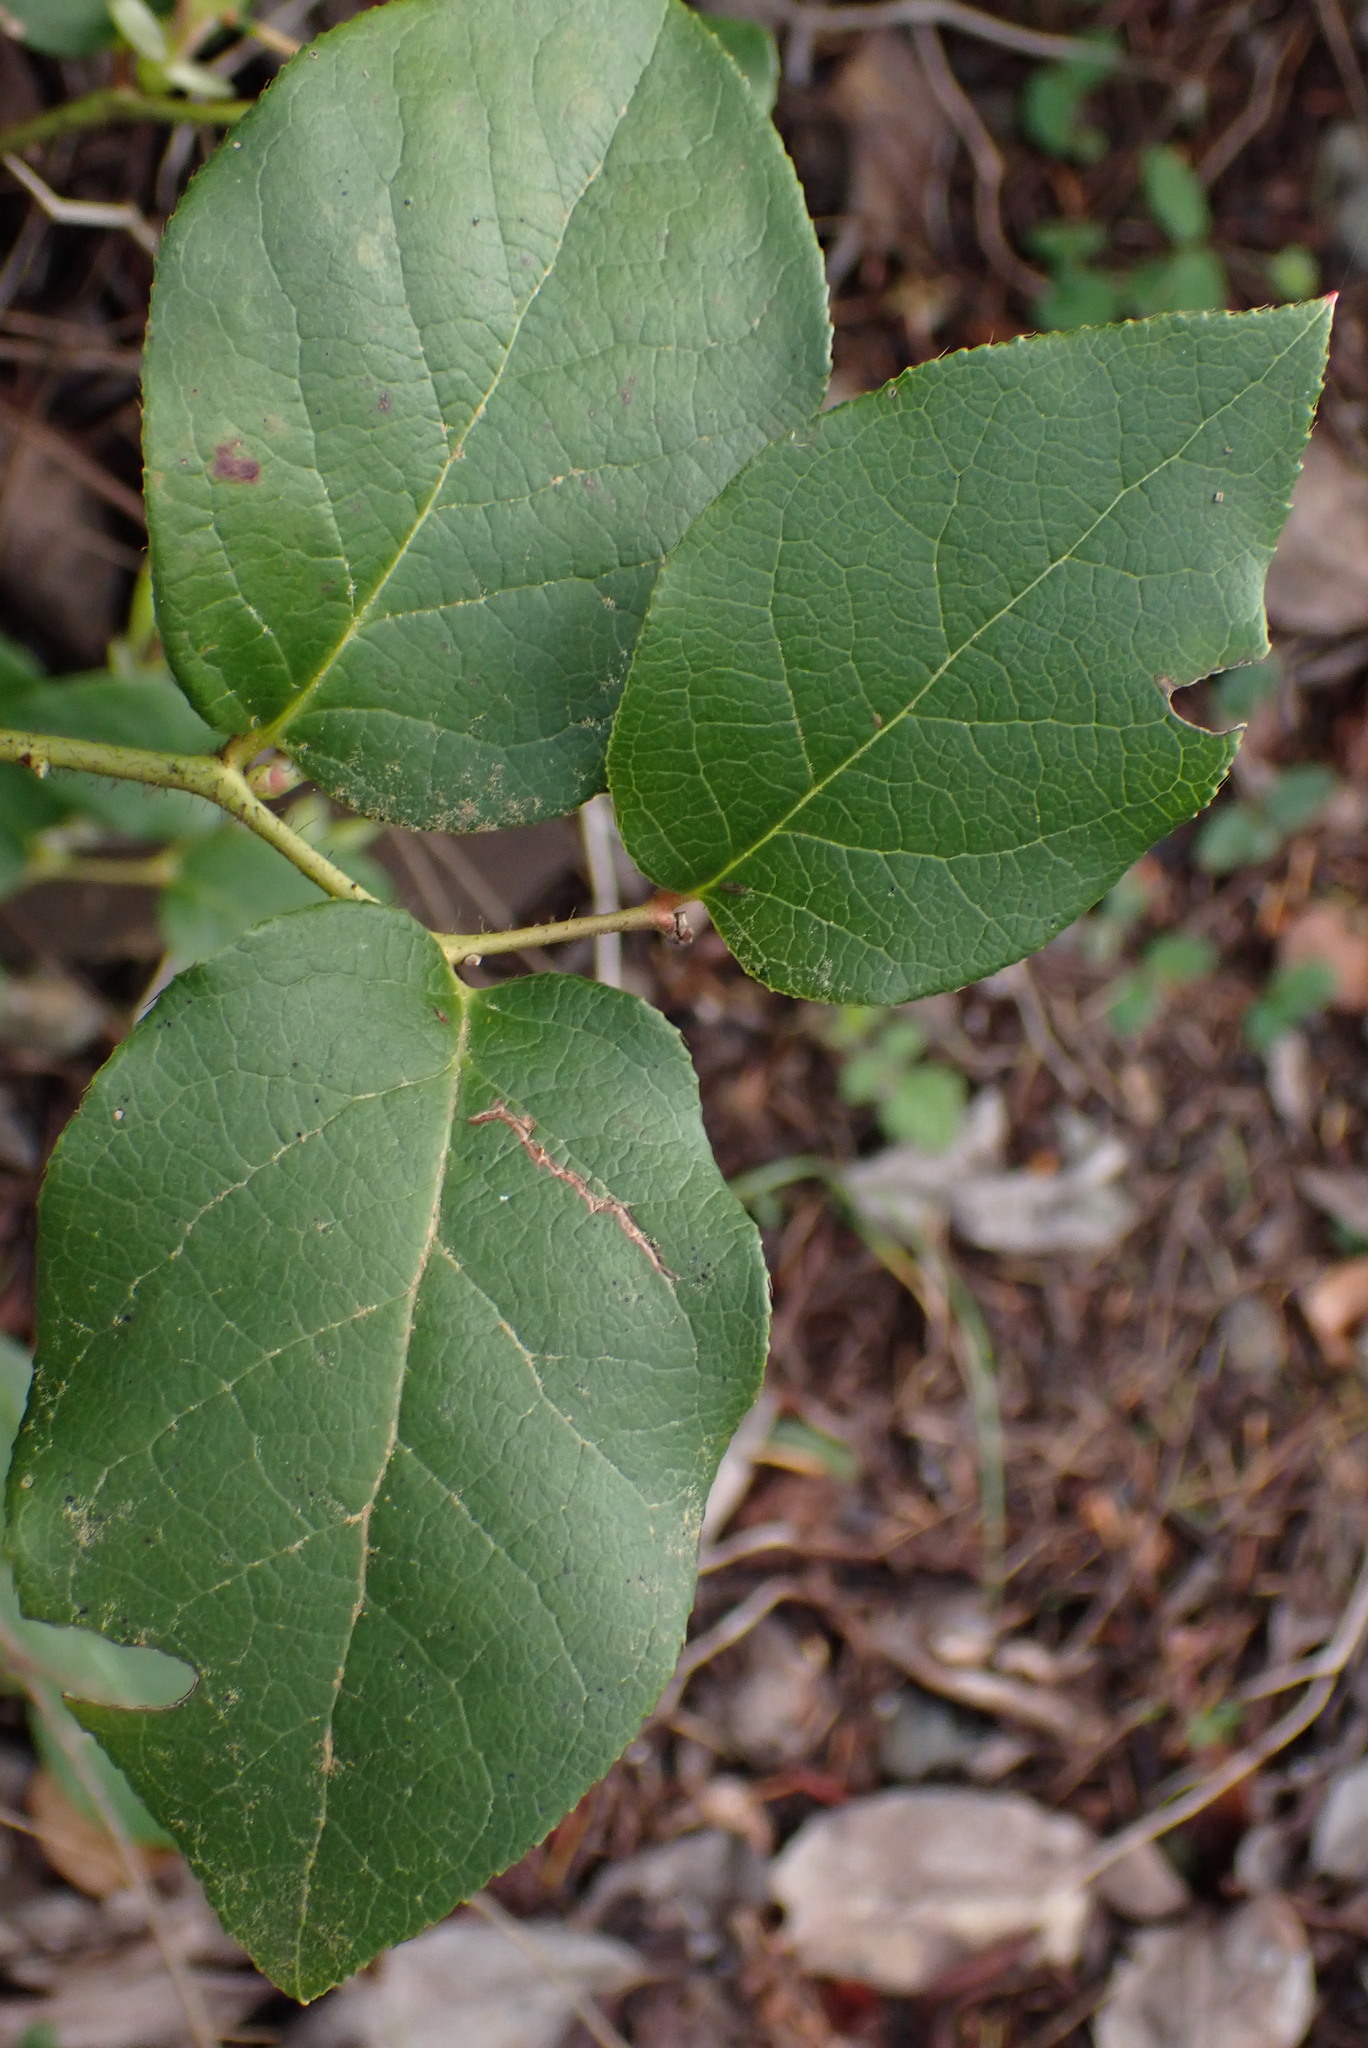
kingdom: Plantae
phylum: Tracheophyta
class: Magnoliopsida
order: Ericales
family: Ericaceae
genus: Gaultheria
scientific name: Gaultheria shallon
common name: Shallon
